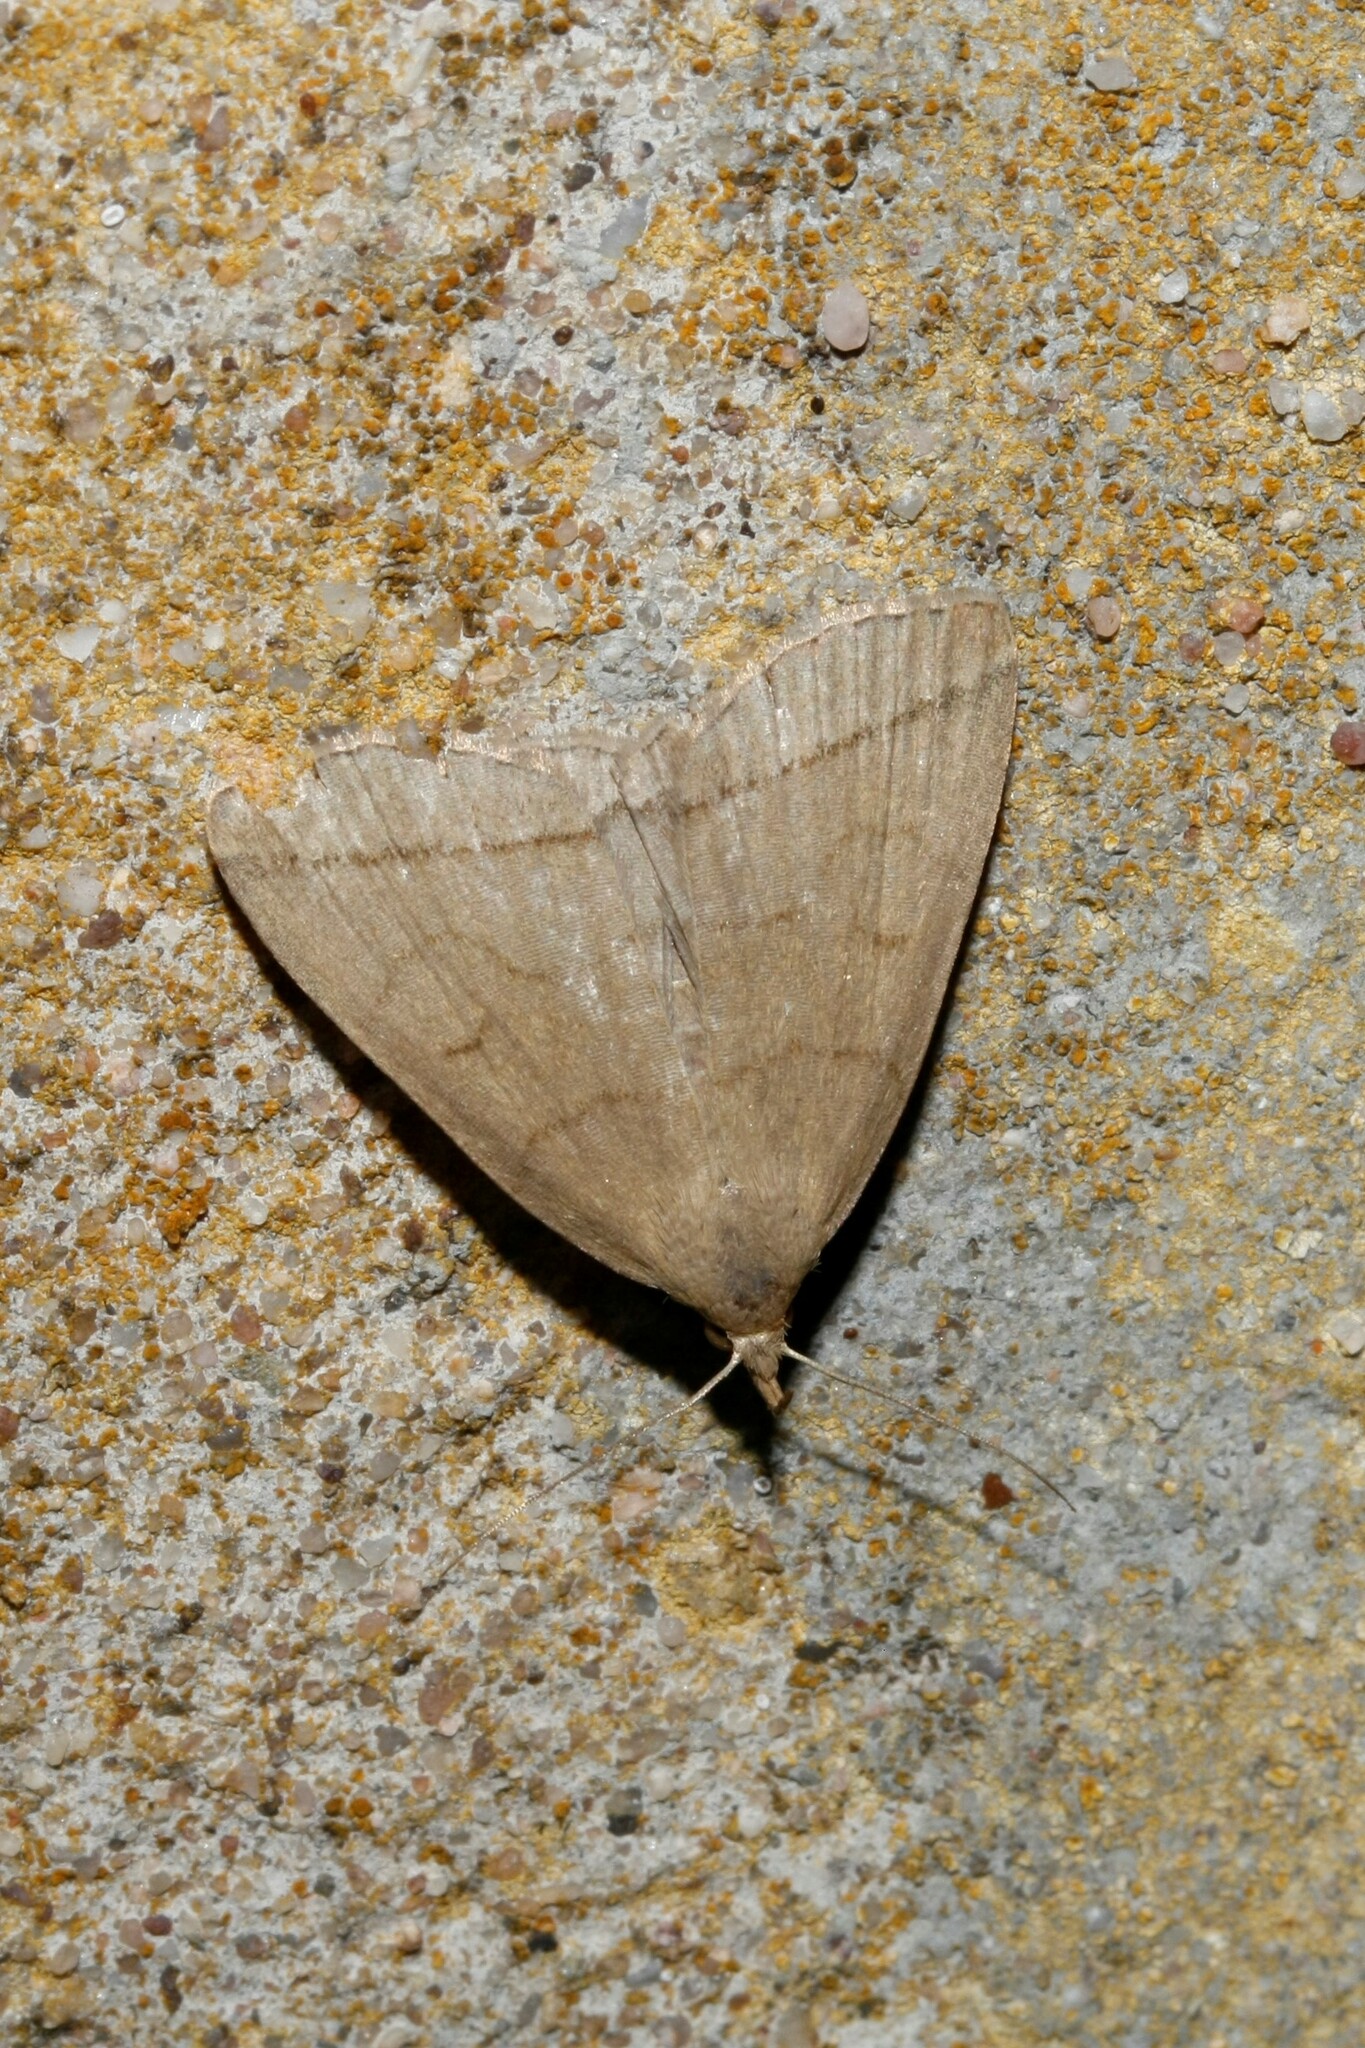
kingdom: Animalia
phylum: Arthropoda
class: Insecta
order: Lepidoptera
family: Erebidae
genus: Herminia
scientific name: Herminia tarsipennalis
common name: Fan-foot
